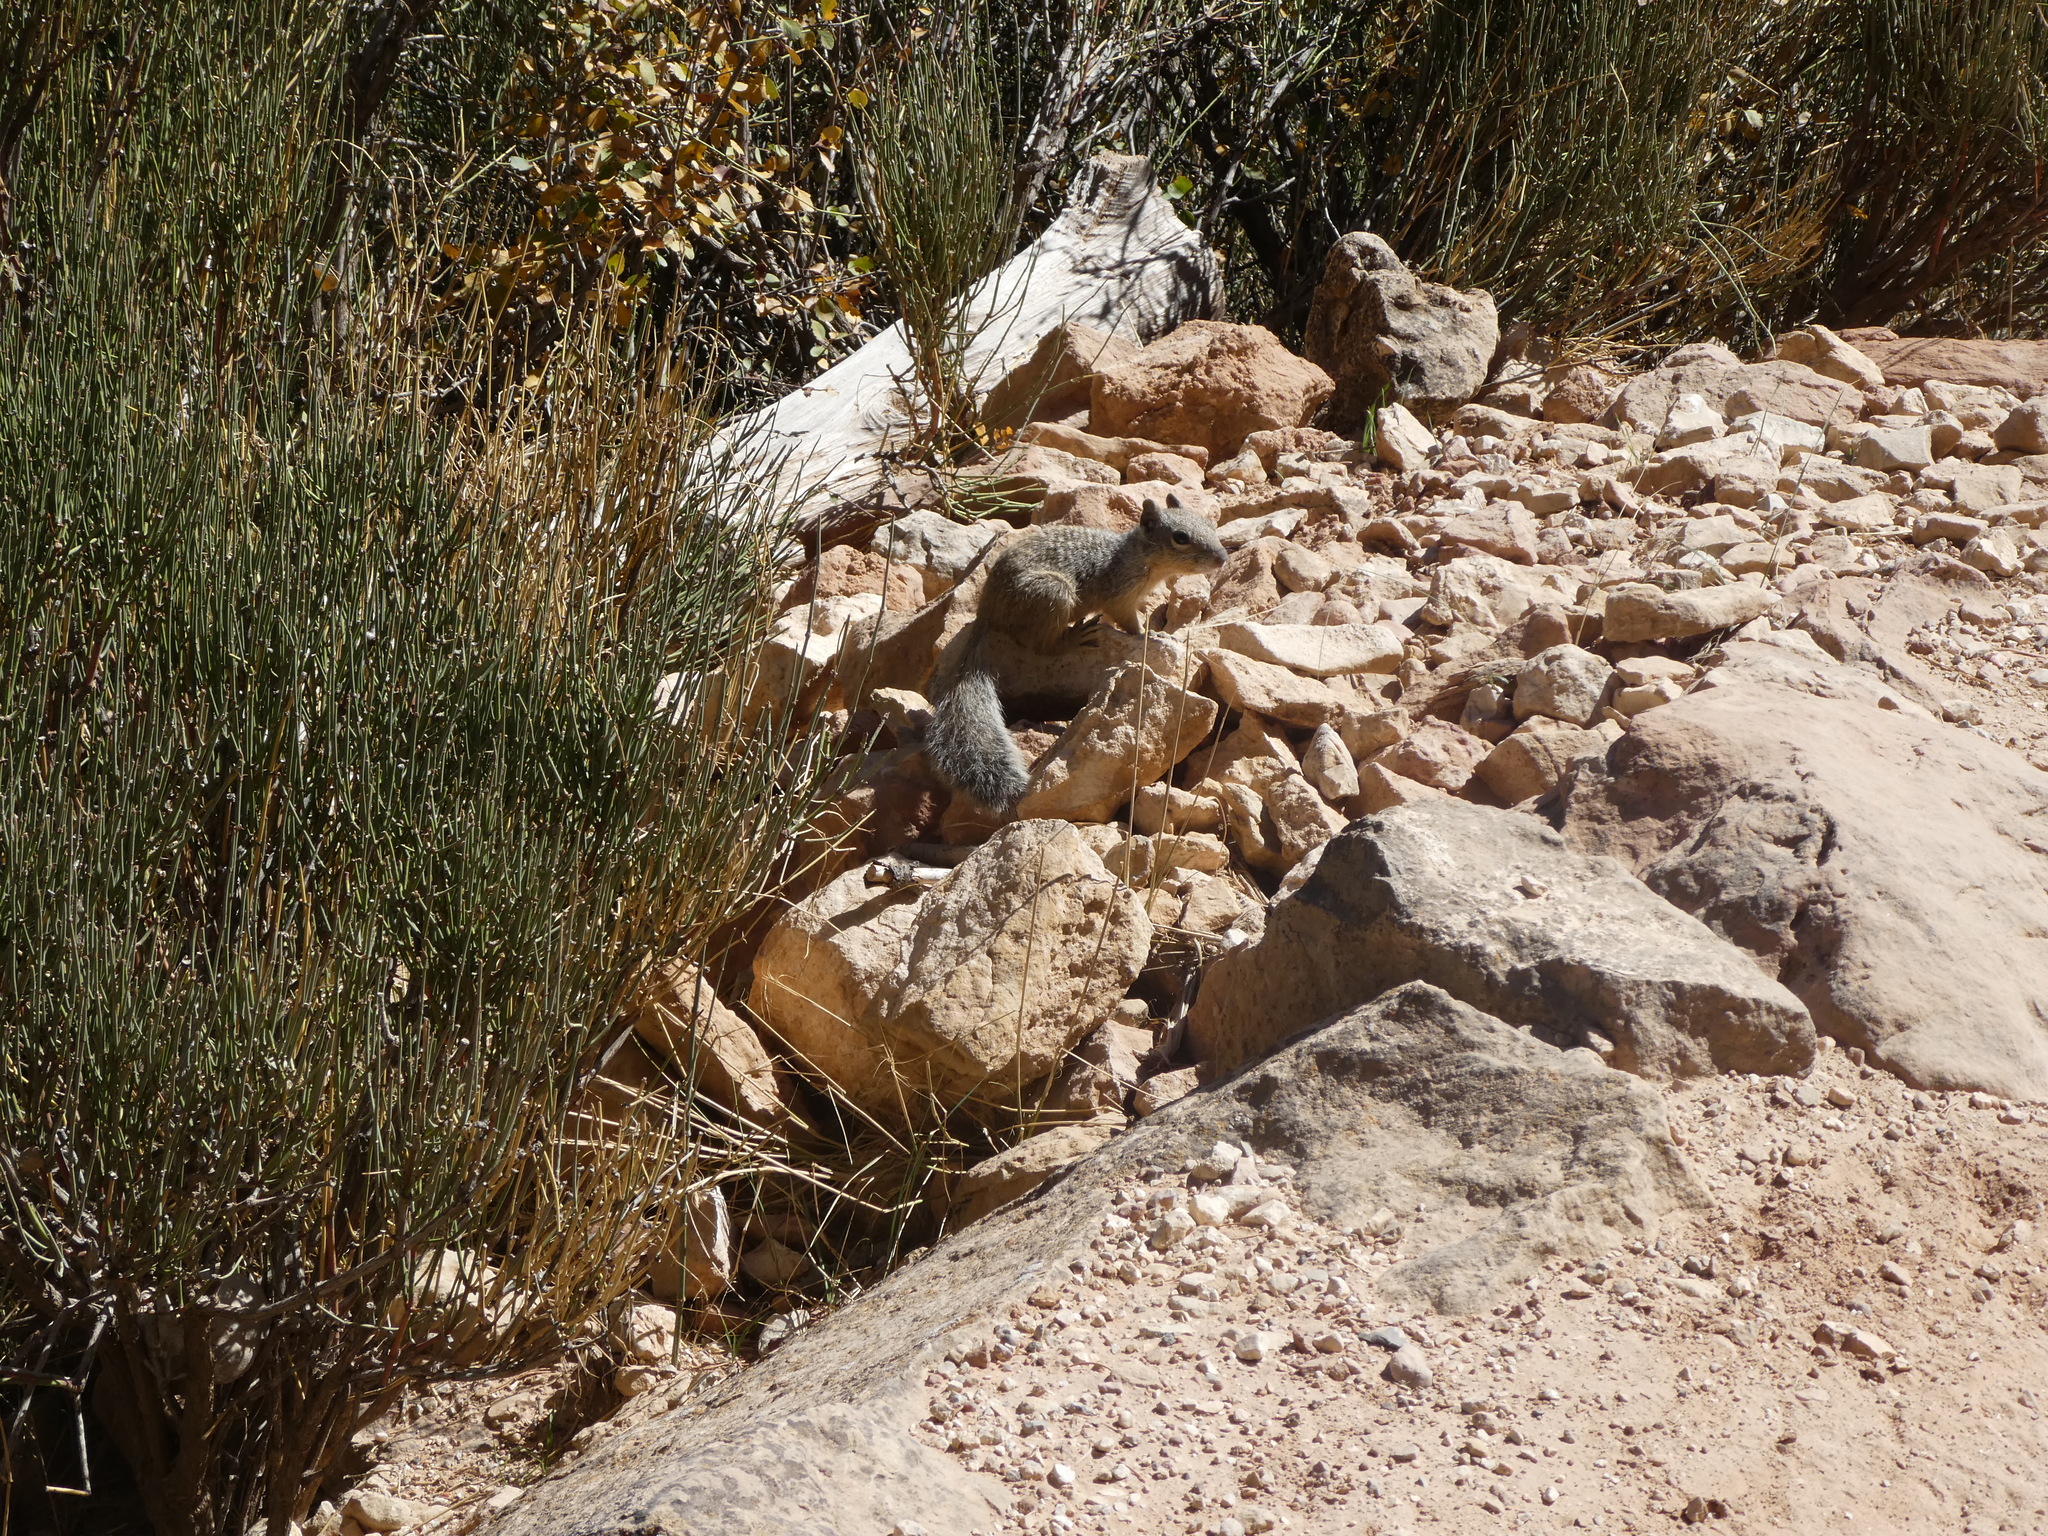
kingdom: Animalia
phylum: Chordata
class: Mammalia
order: Rodentia
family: Sciuridae
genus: Otospermophilus
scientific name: Otospermophilus variegatus
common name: Rock squirrel
